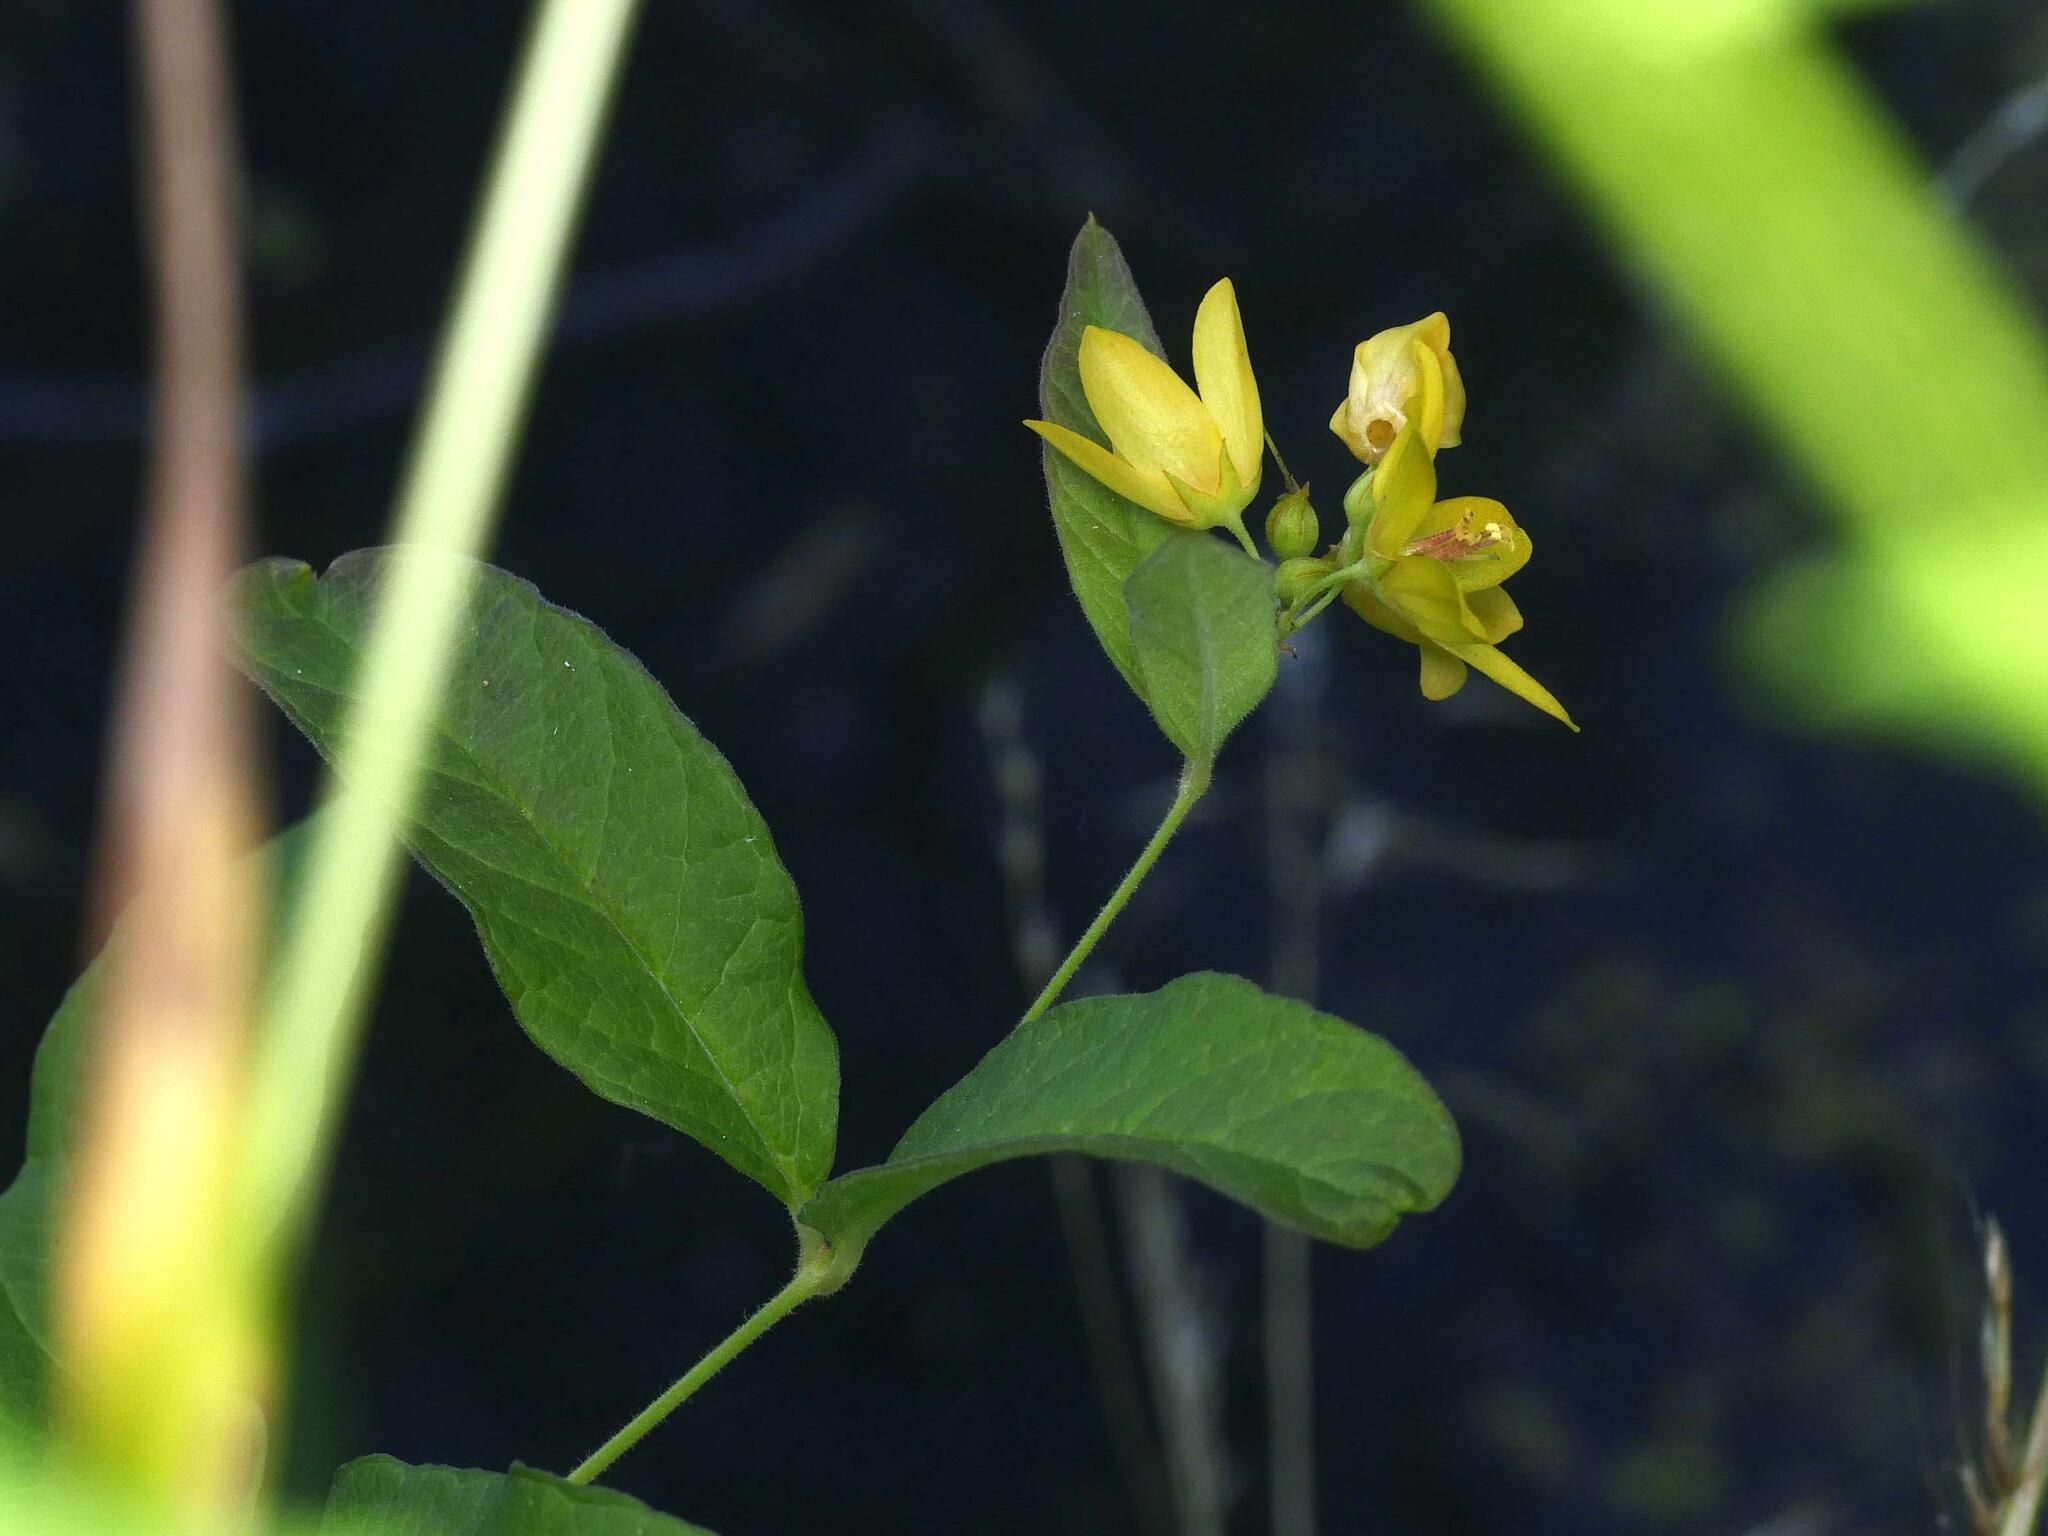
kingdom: Plantae
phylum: Tracheophyta
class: Magnoliopsida
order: Ericales
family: Primulaceae
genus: Lysimachia
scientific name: Lysimachia vulgaris
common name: Yellow loosestrife
